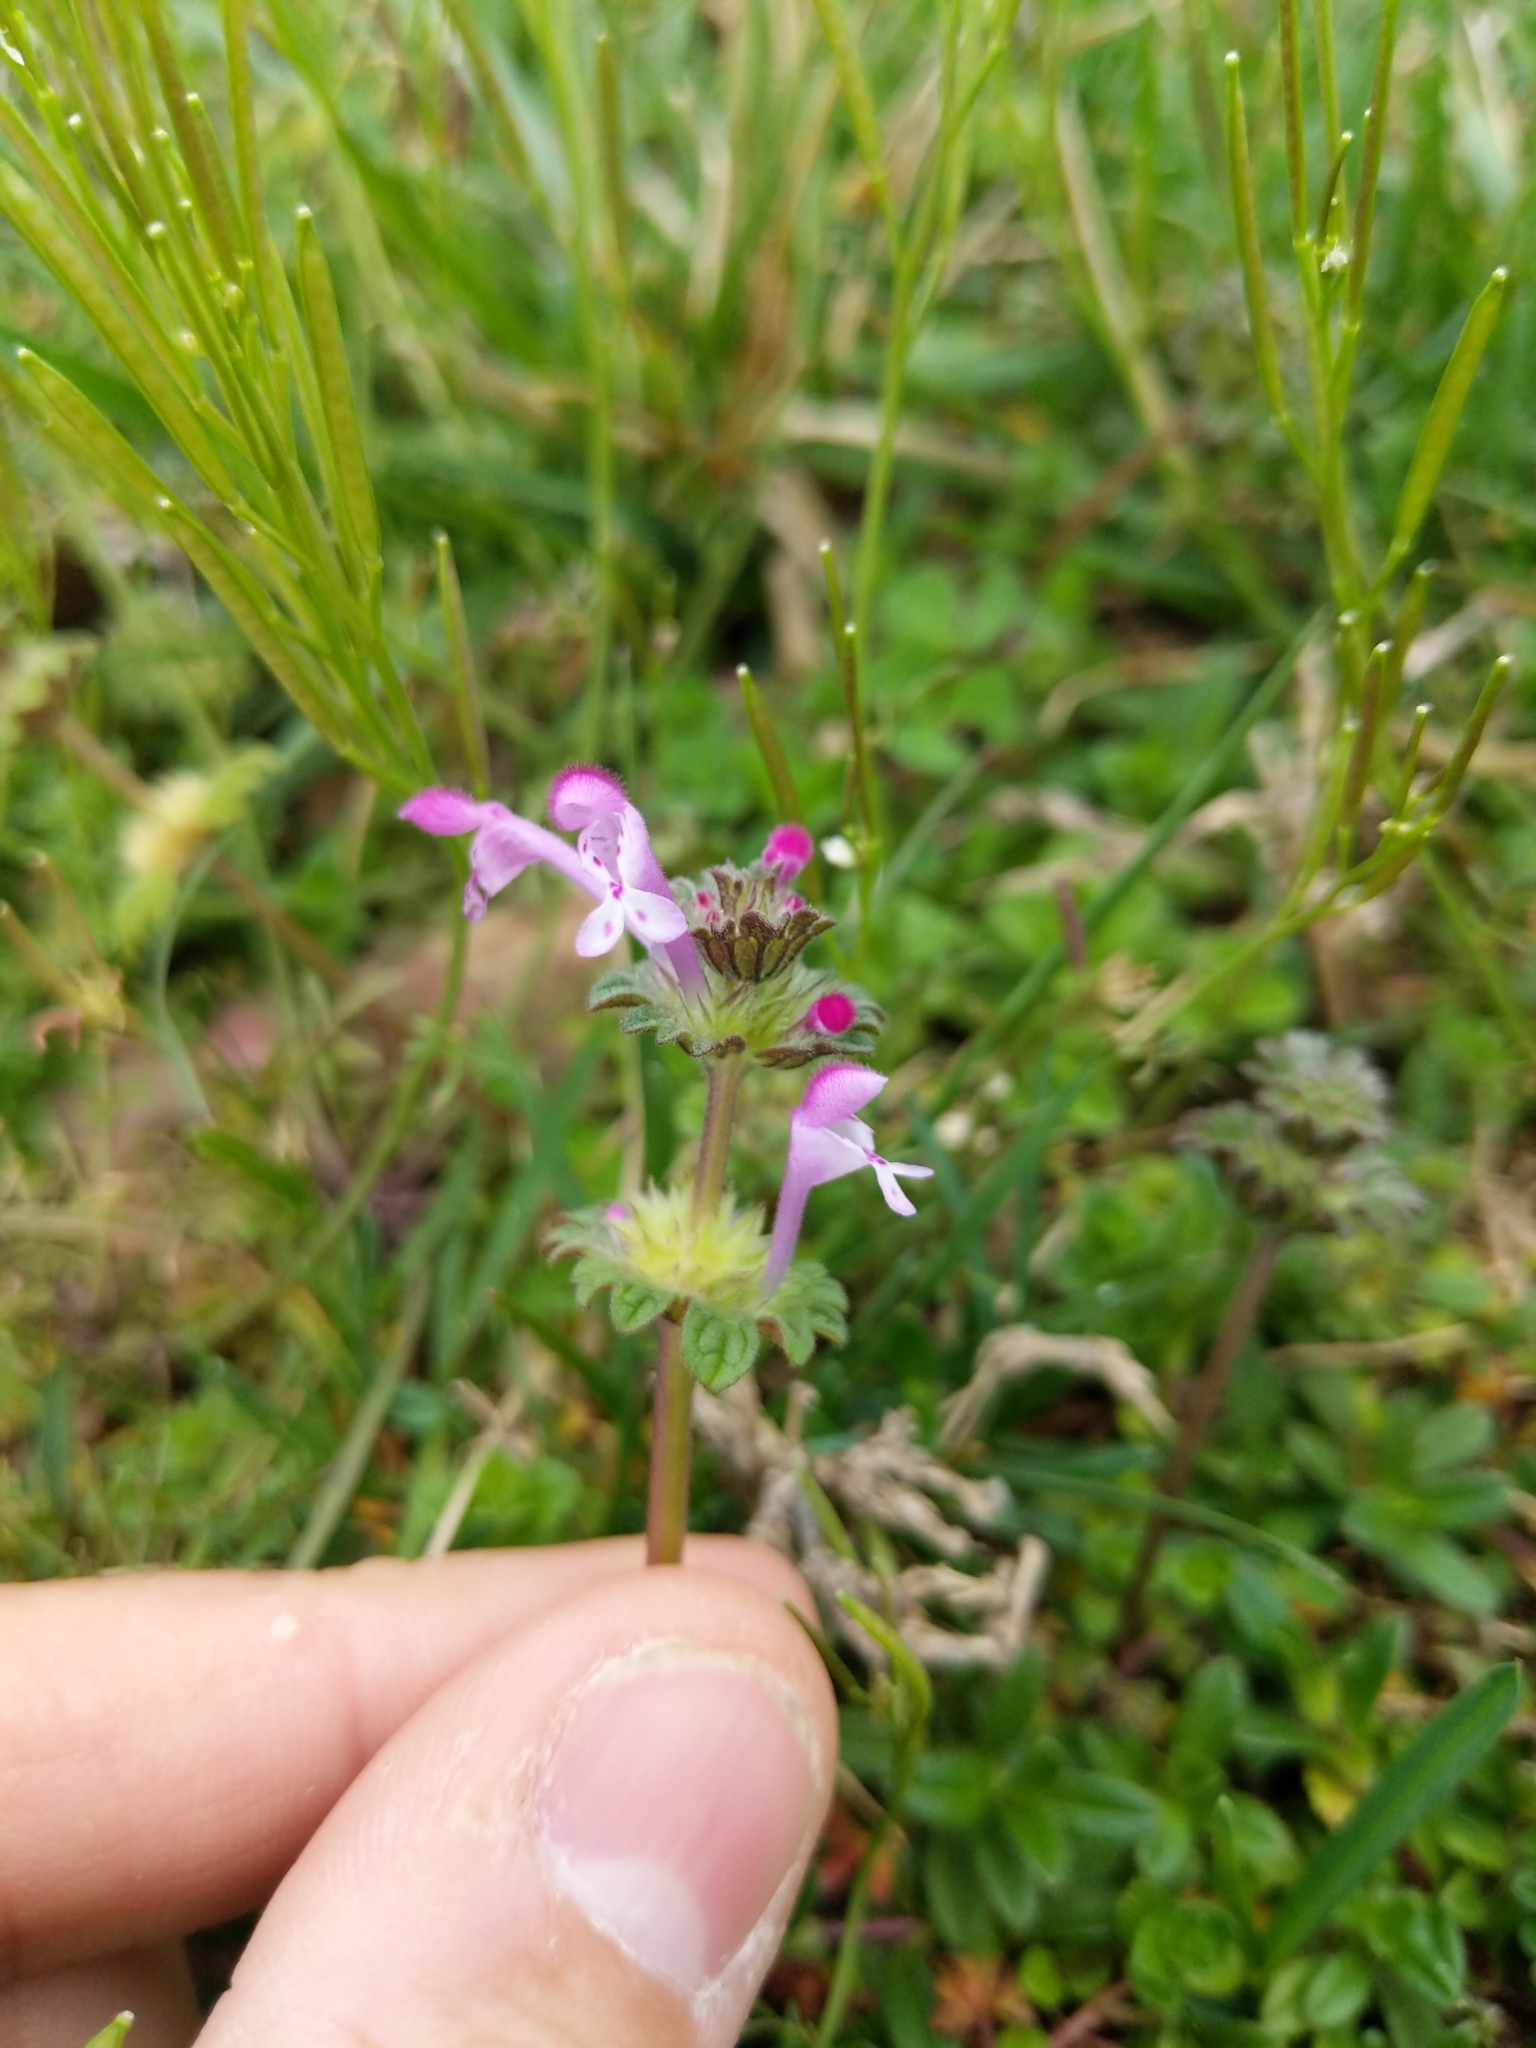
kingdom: Plantae
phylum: Tracheophyta
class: Magnoliopsida
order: Lamiales
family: Lamiaceae
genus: Lamium
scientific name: Lamium amplexicaule
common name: Henbit dead-nettle
